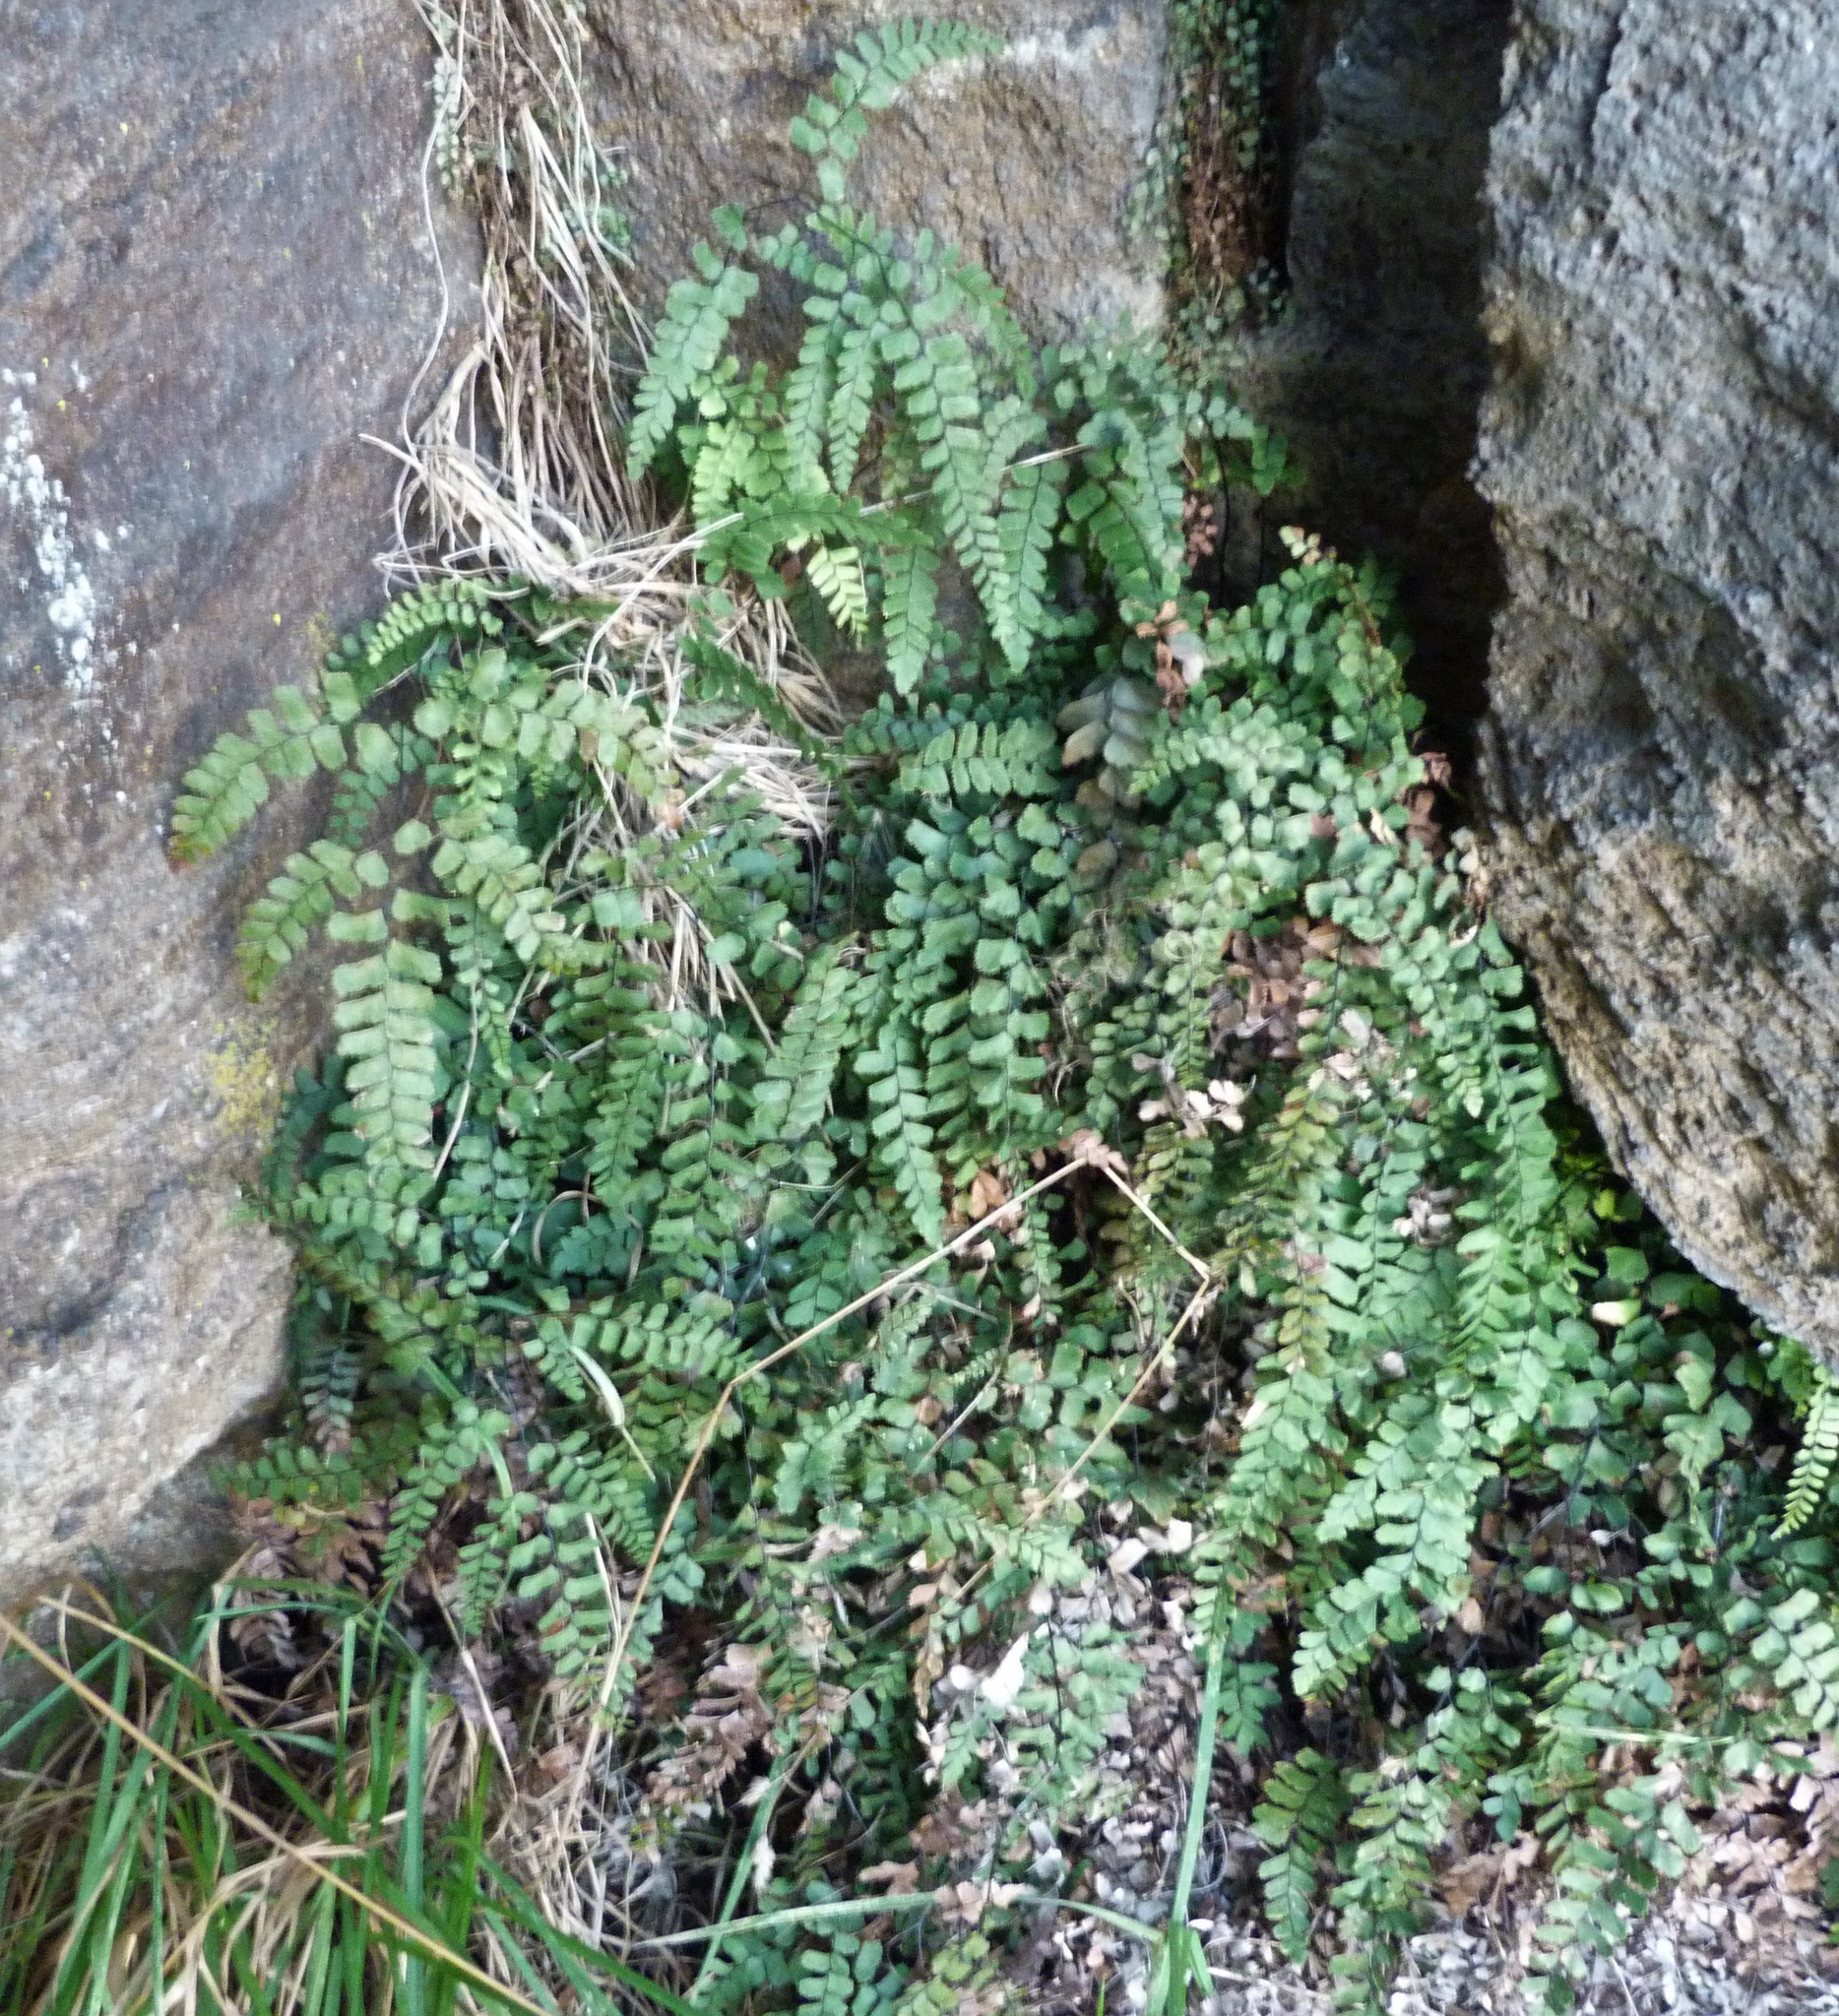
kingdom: Plantae
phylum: Tracheophyta
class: Polypodiopsida
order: Polypodiales
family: Pteridaceae
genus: Adiantum
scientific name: Adiantum cunninghamii
